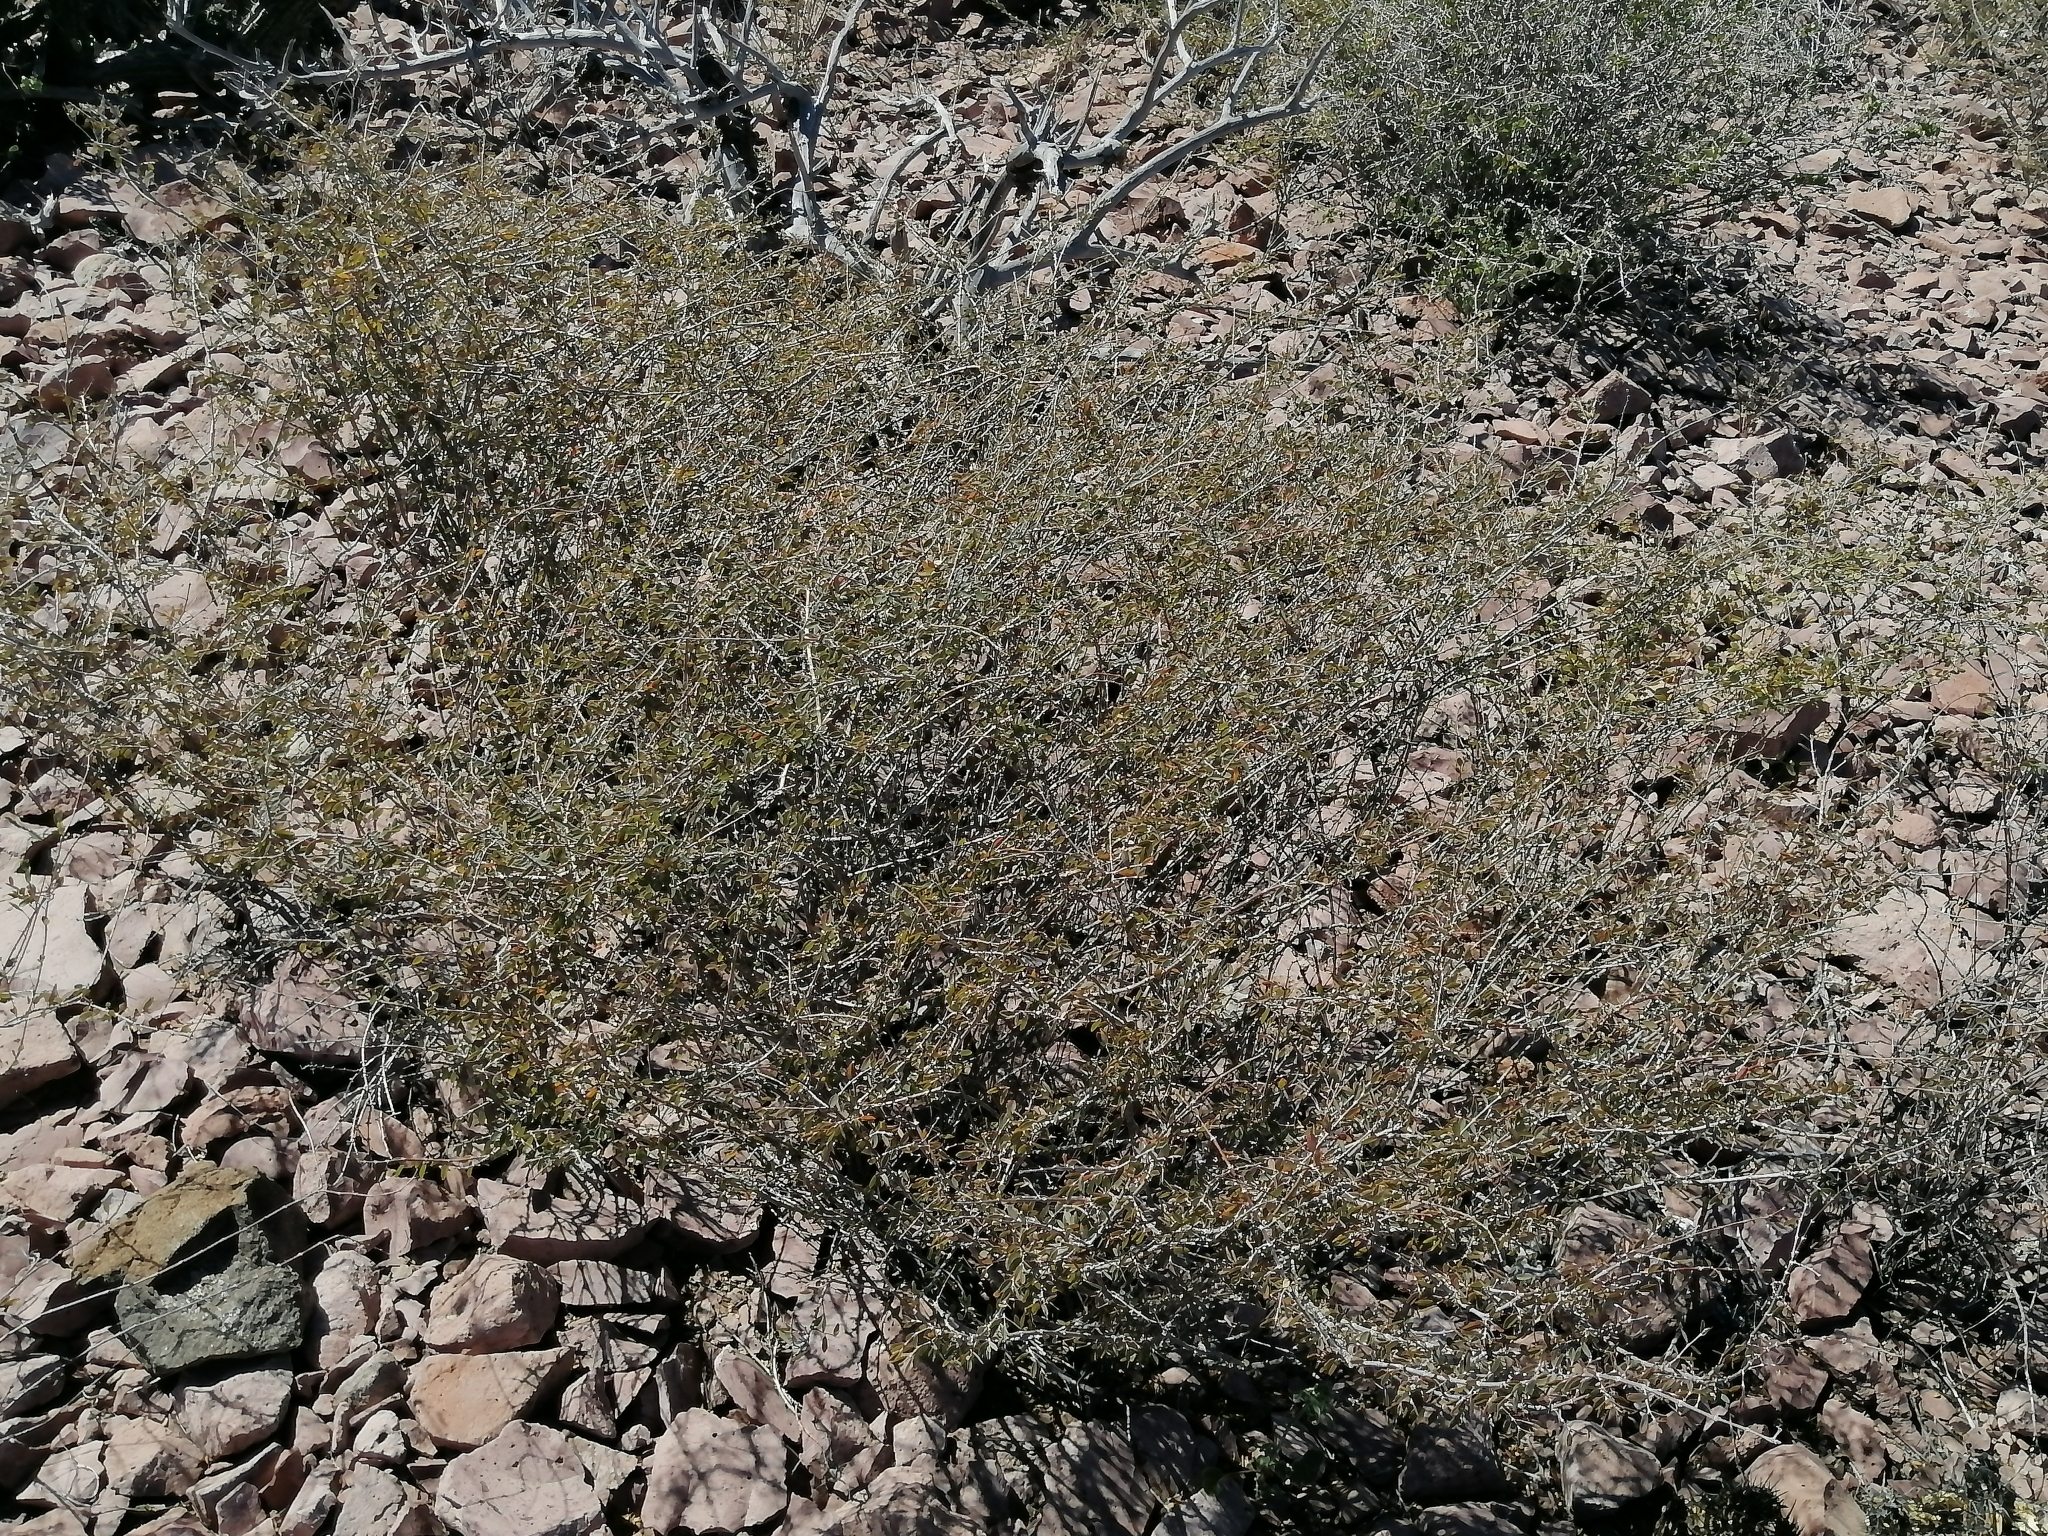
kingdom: Plantae
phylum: Tracheophyta
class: Magnoliopsida
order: Malpighiales
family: Euphorbiaceae
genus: Euphorbia
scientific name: Euphorbia magdalenae
